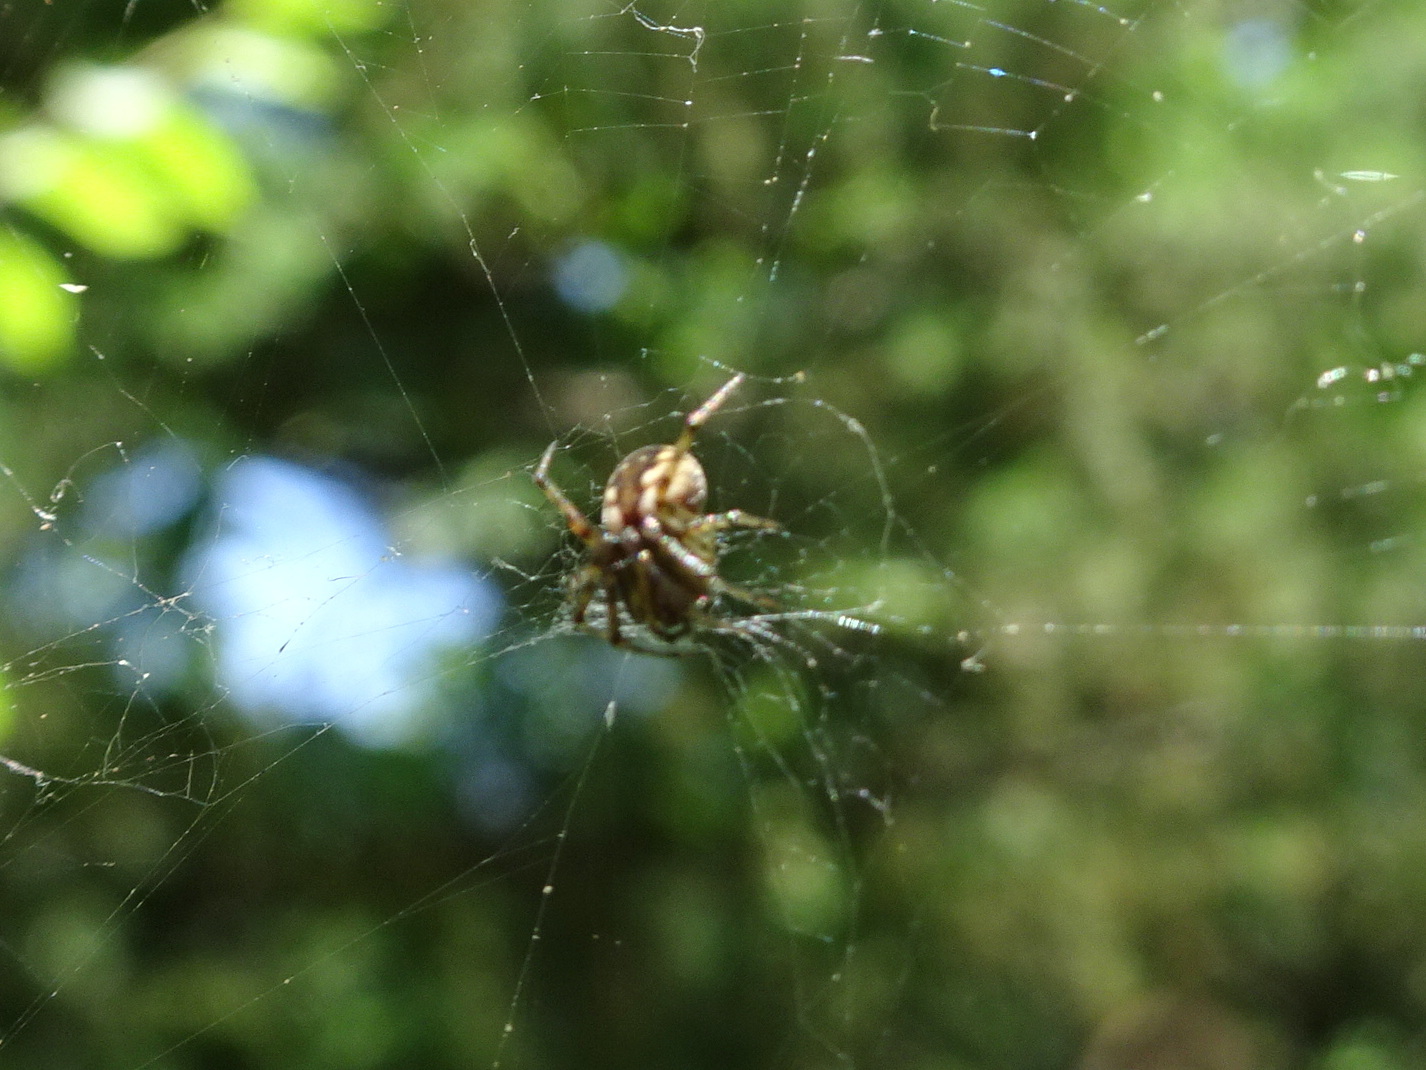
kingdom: Animalia
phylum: Arthropoda
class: Arachnida
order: Araneae
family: Araneidae
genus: Mangora
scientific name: Mangora placida
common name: Tuft-legged orbweaver
